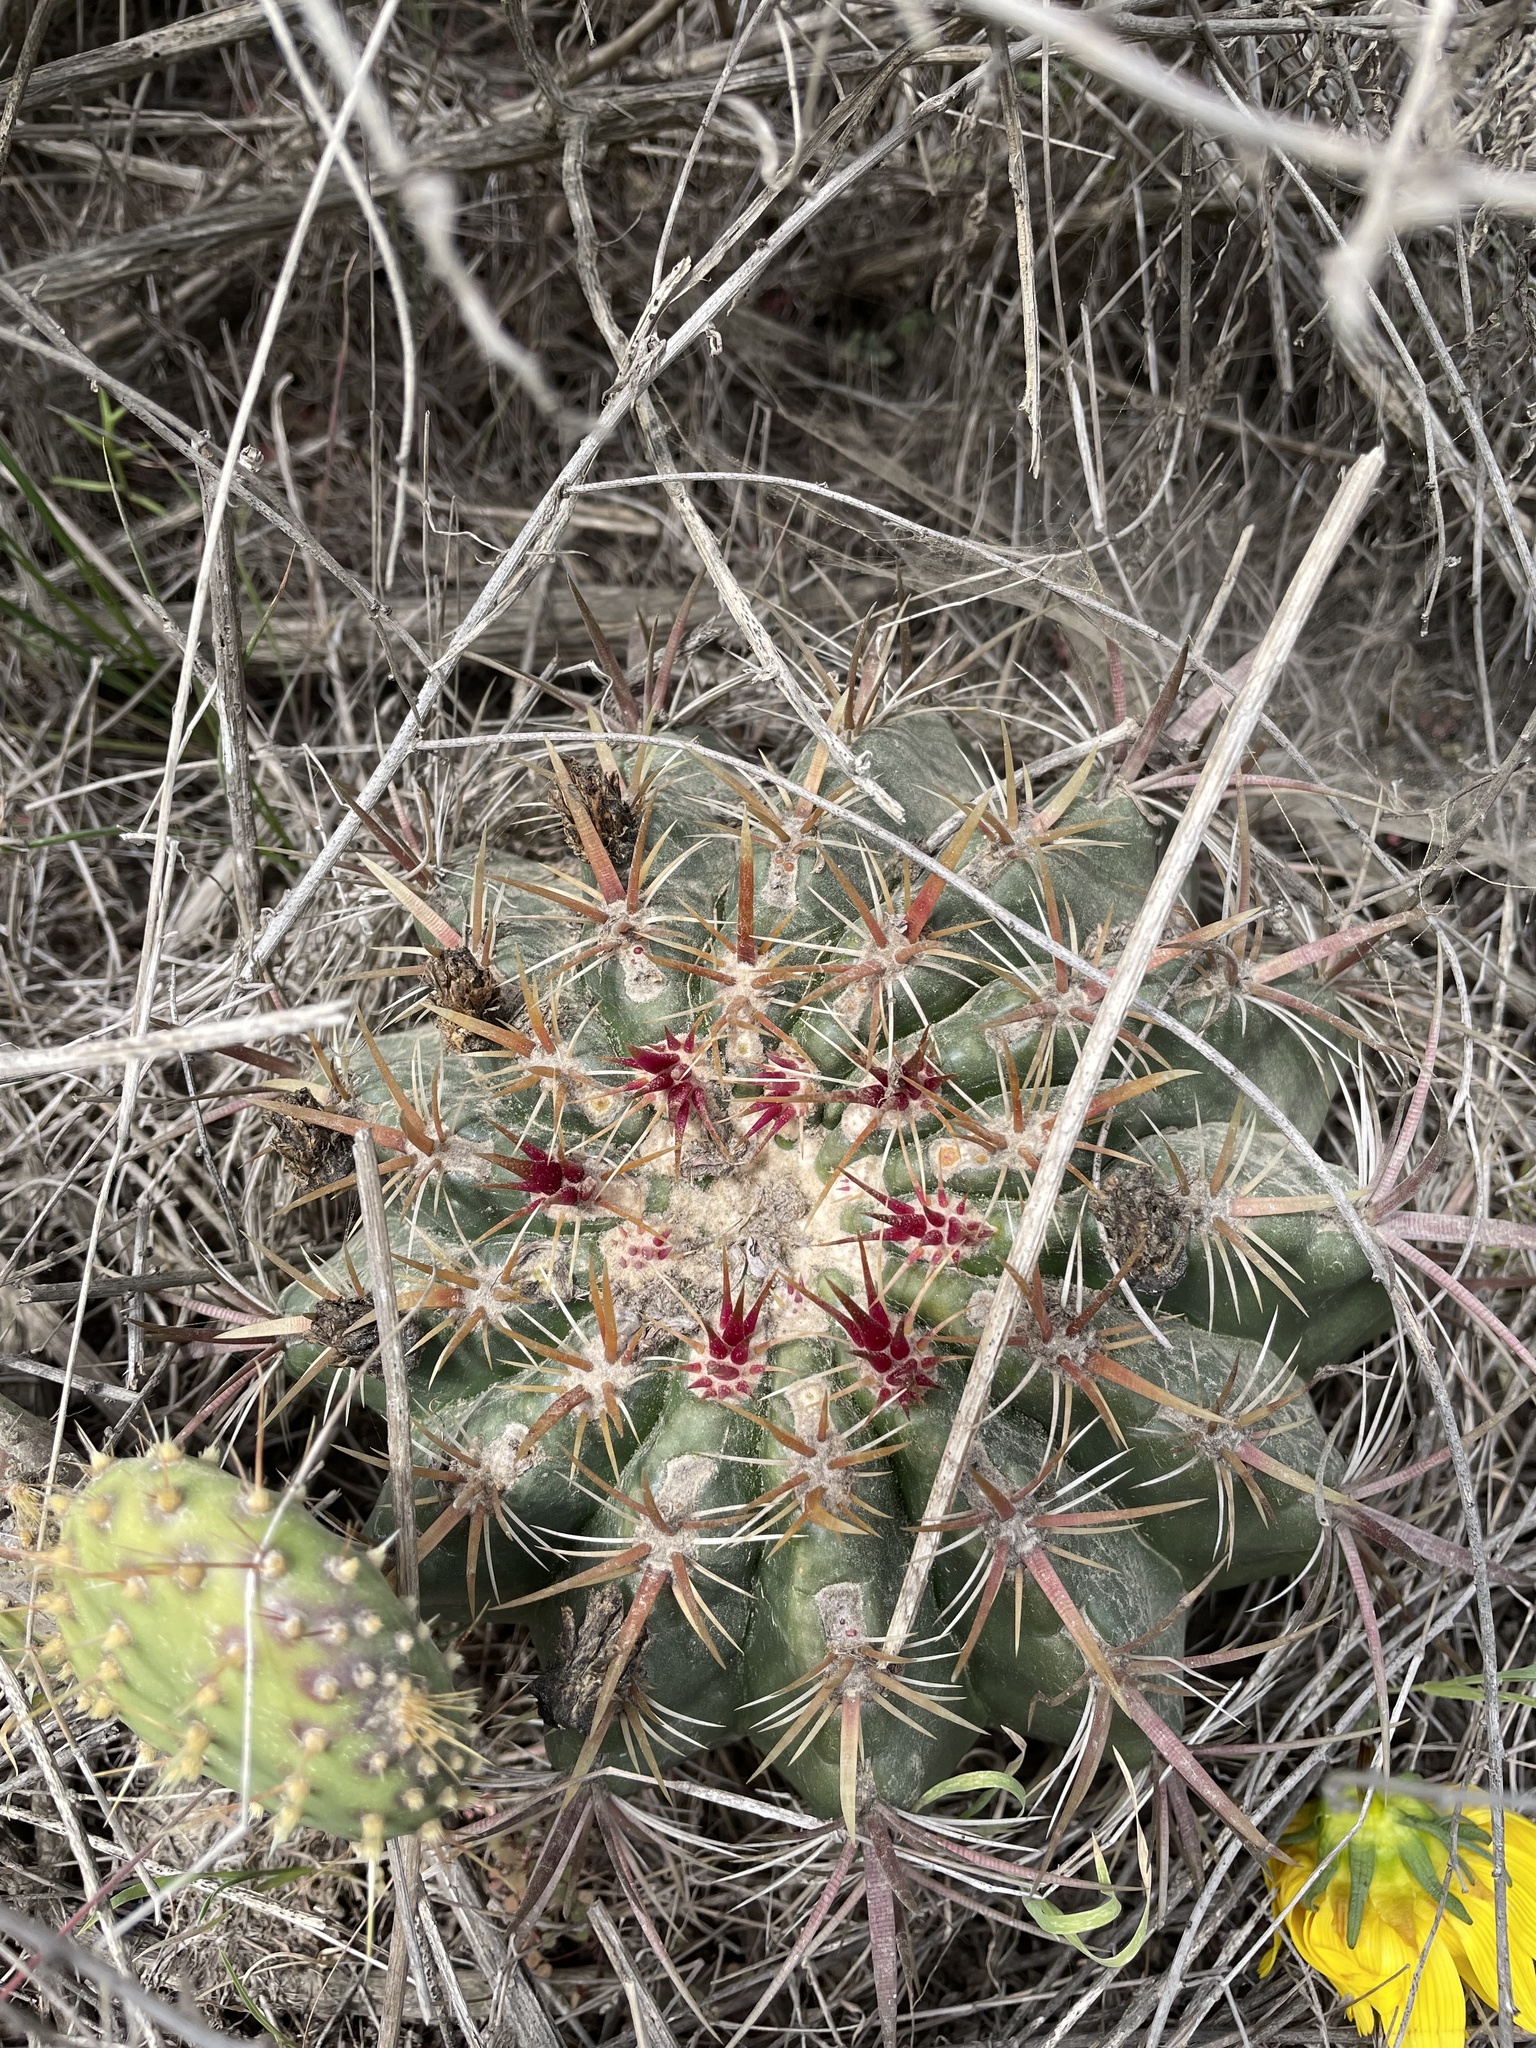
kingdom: Plantae
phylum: Tracheophyta
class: Magnoliopsida
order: Caryophyllales
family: Cactaceae
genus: Ferocactus
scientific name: Ferocactus viridescens
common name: San diego barrel cactus
